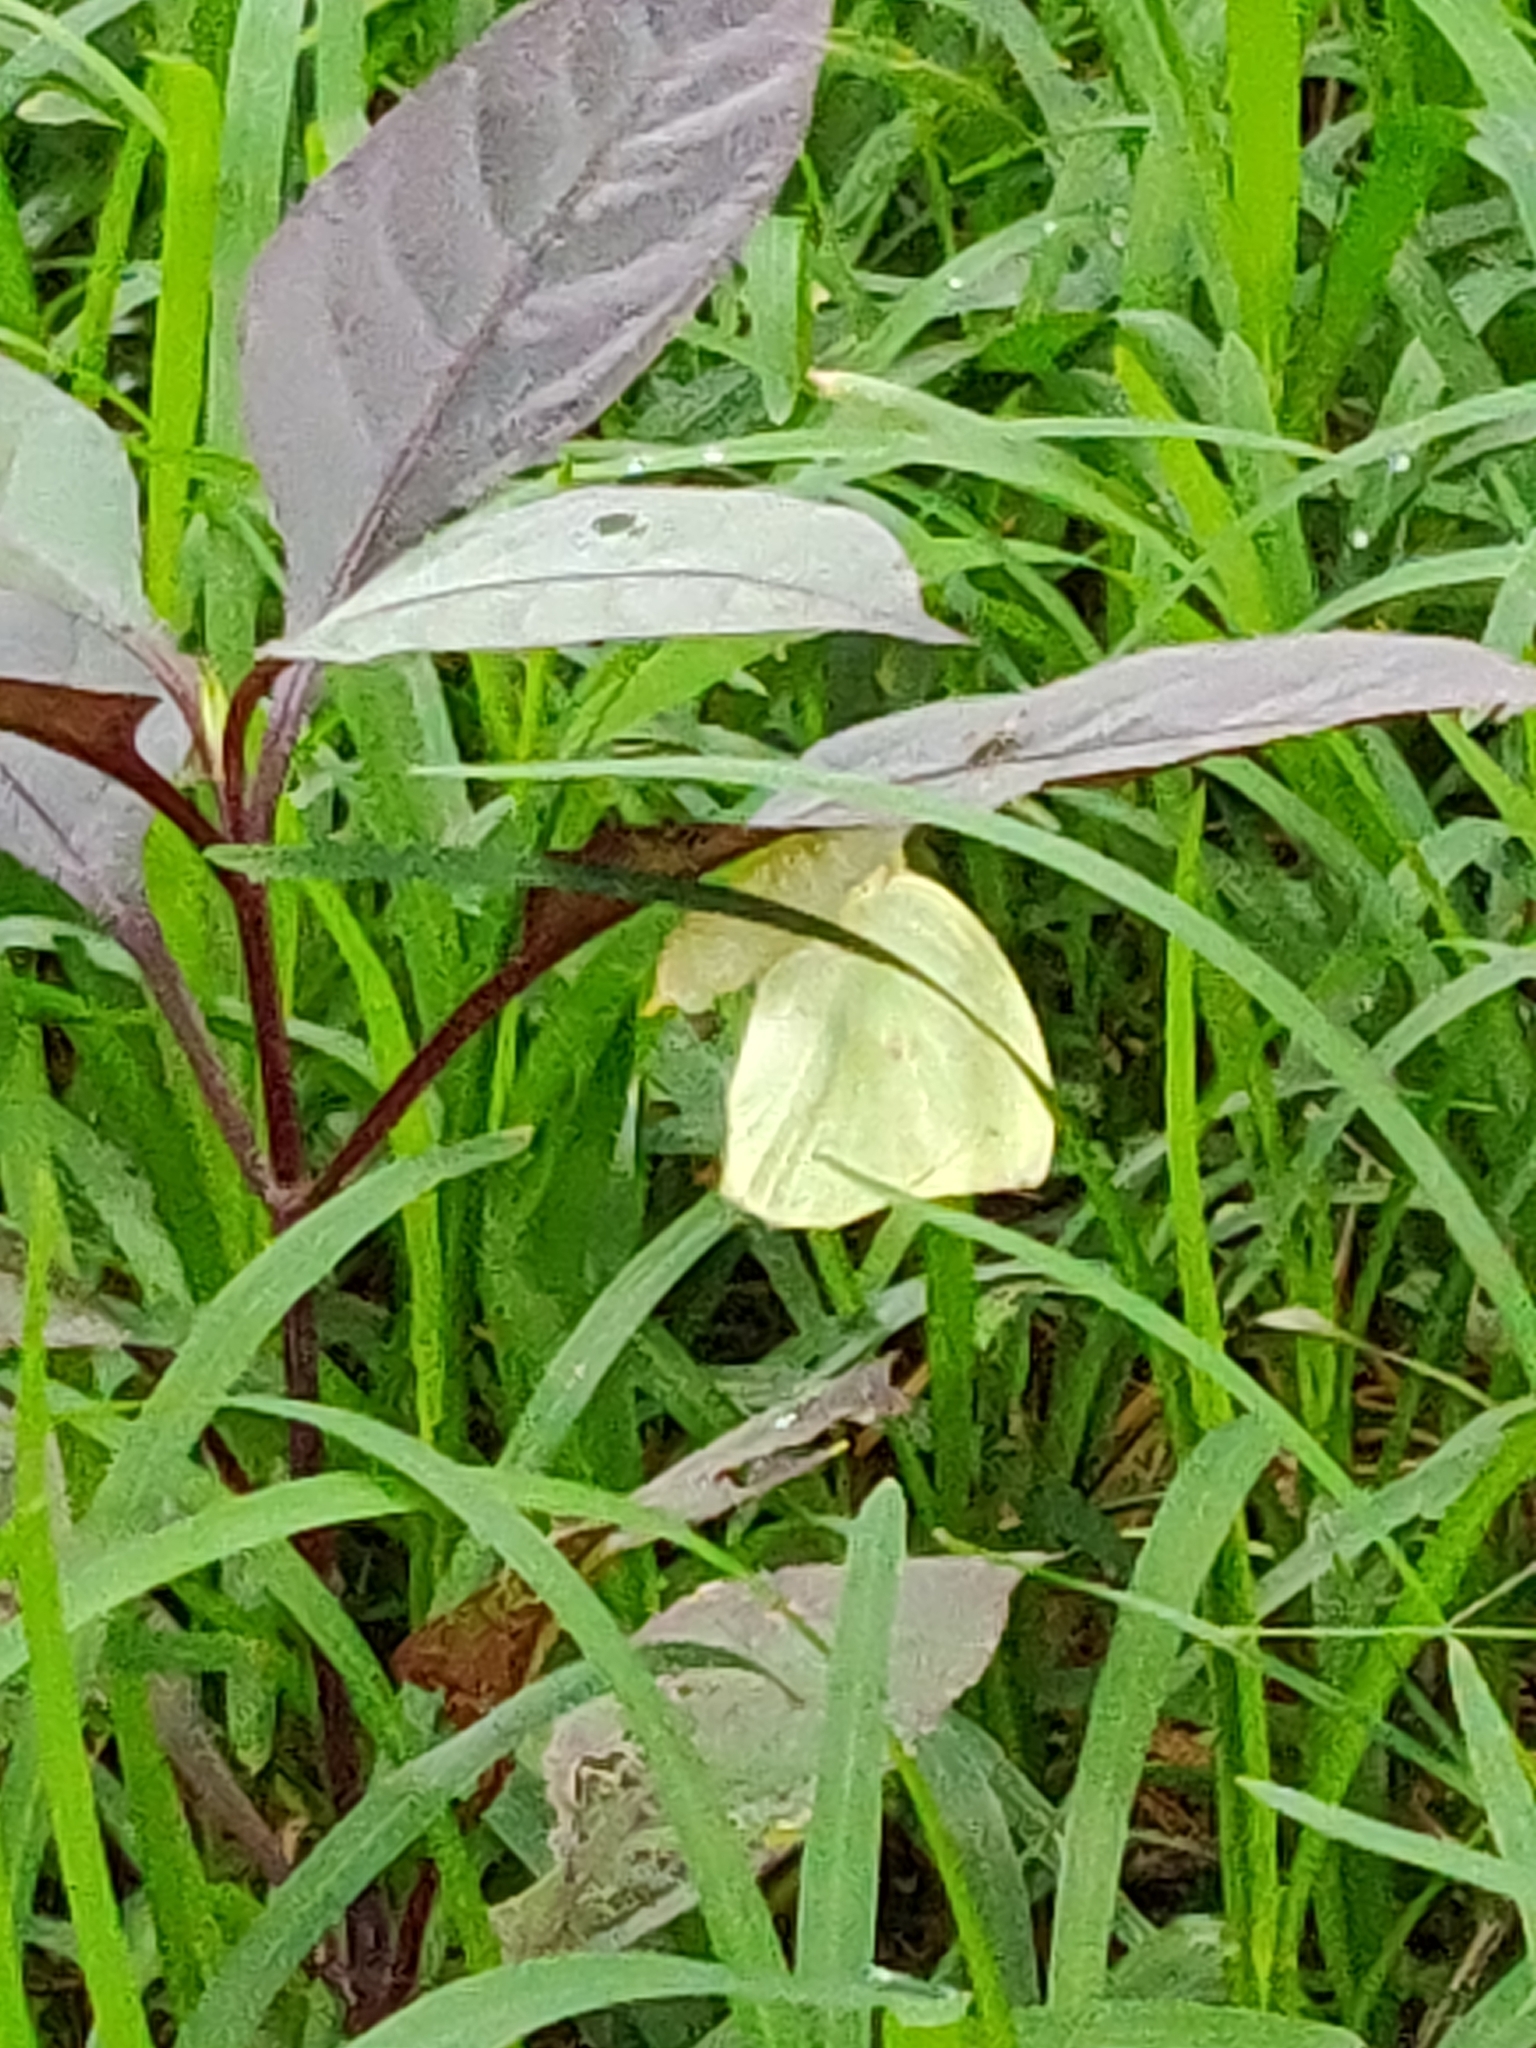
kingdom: Animalia
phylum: Arthropoda
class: Insecta
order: Lepidoptera
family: Pieridae
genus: Catopsilia
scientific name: Catopsilia pomona
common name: Common emigrant
